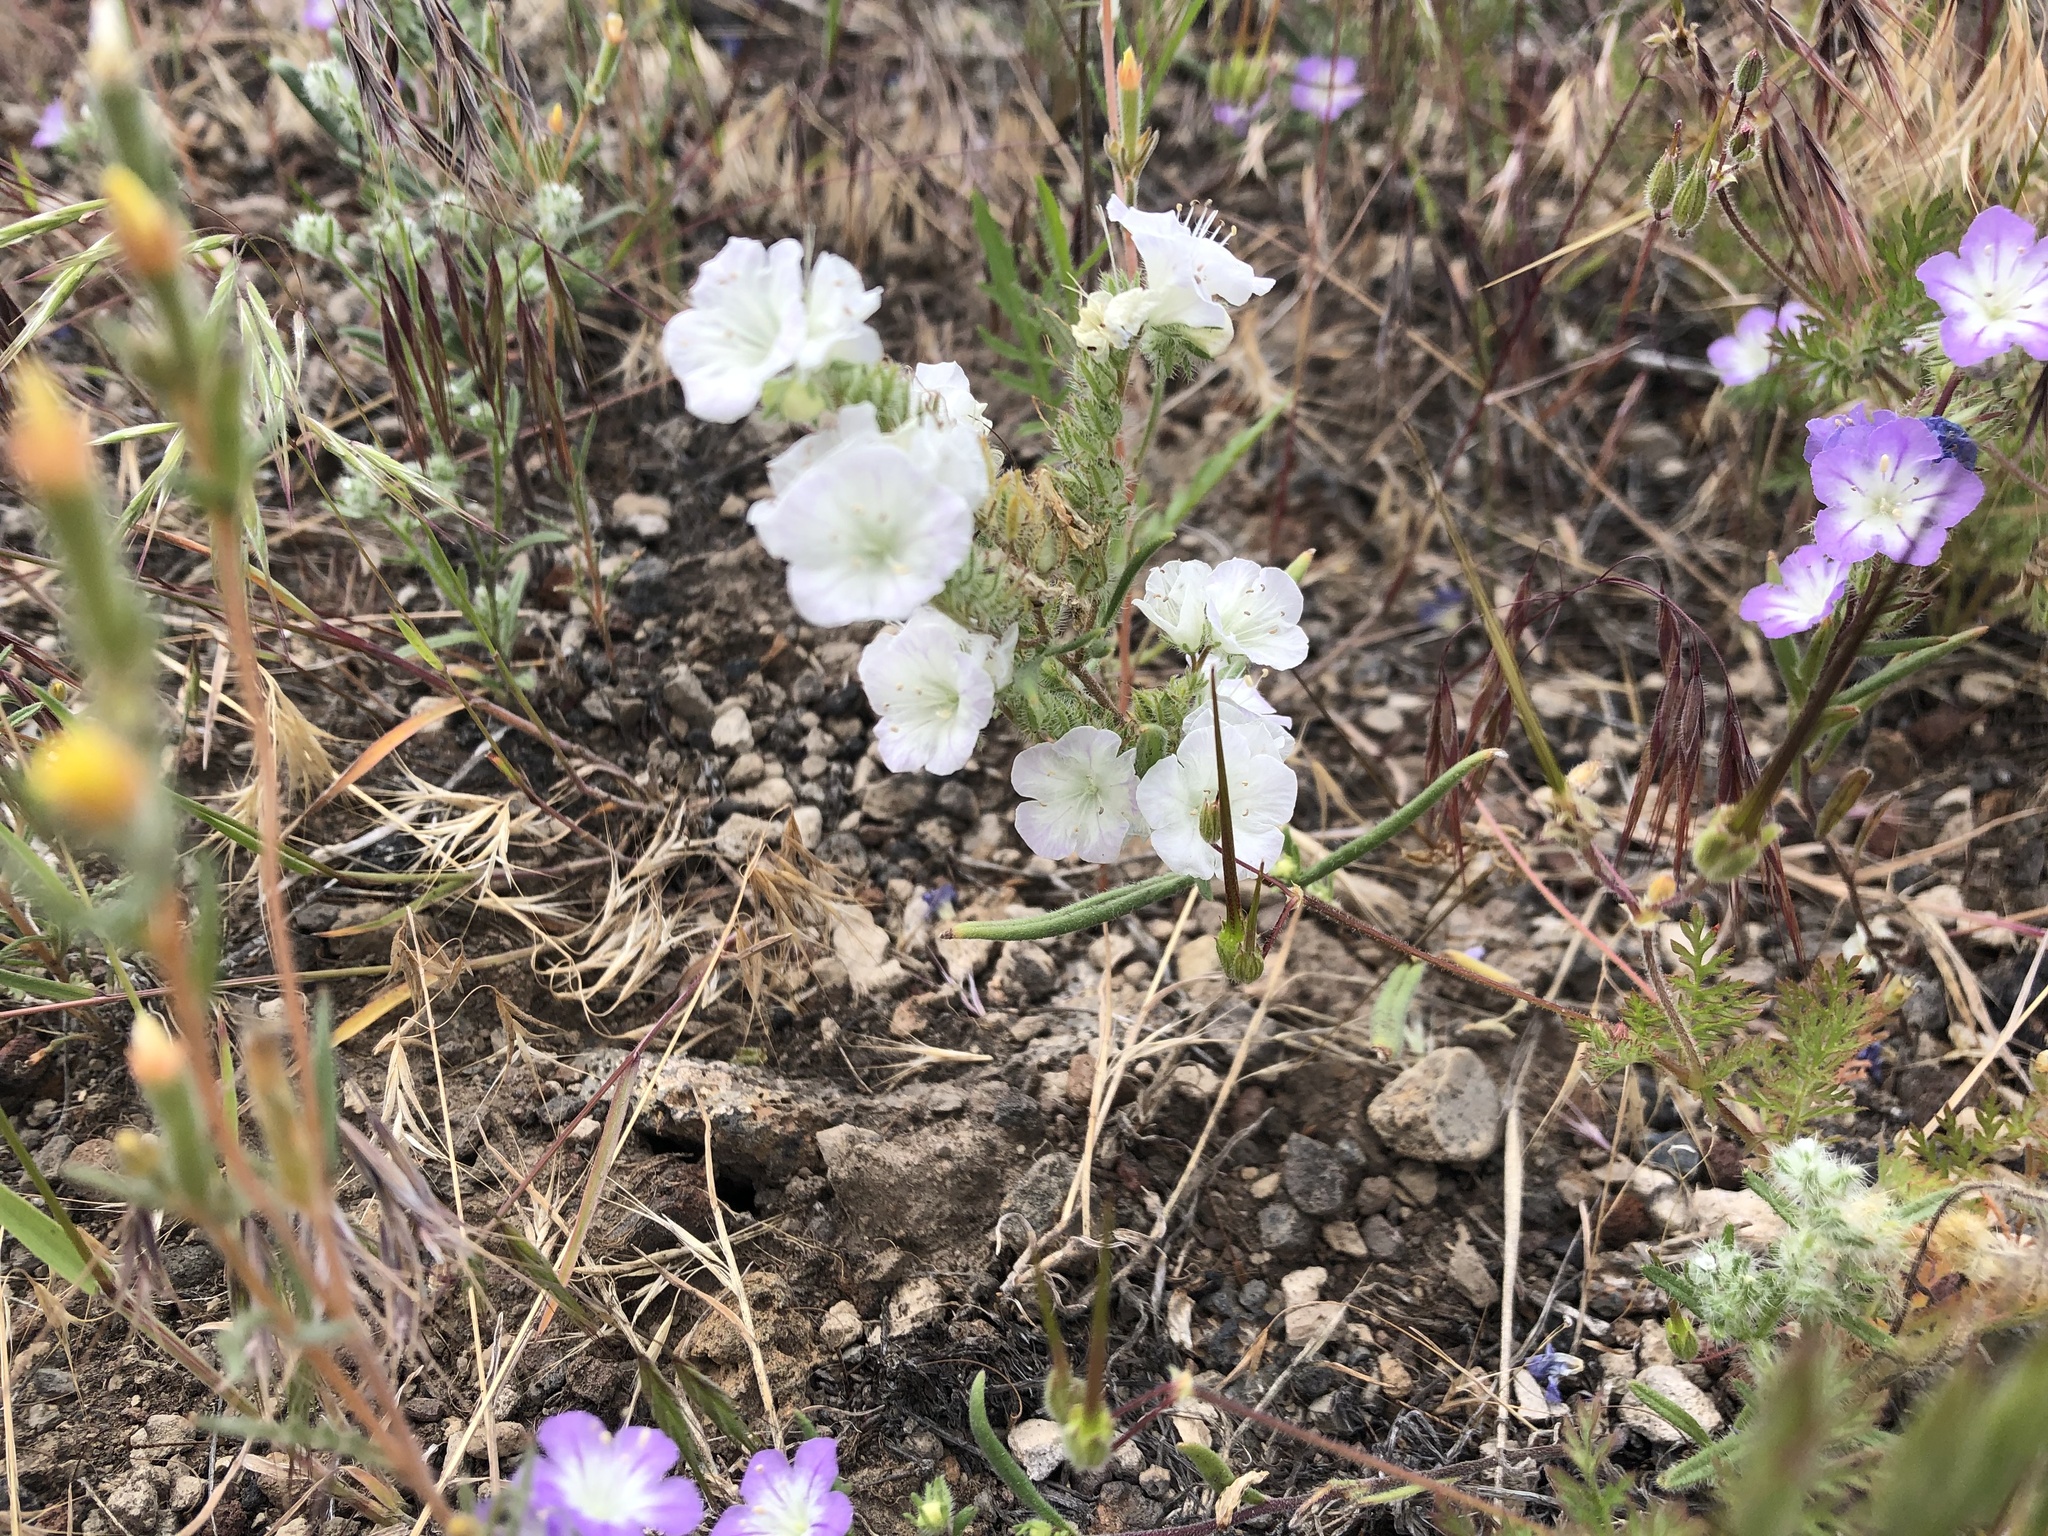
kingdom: Plantae
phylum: Tracheophyta
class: Magnoliopsida
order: Boraginales
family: Hydrophyllaceae
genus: Phacelia
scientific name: Phacelia linearis
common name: Linear-leaved phacelia
